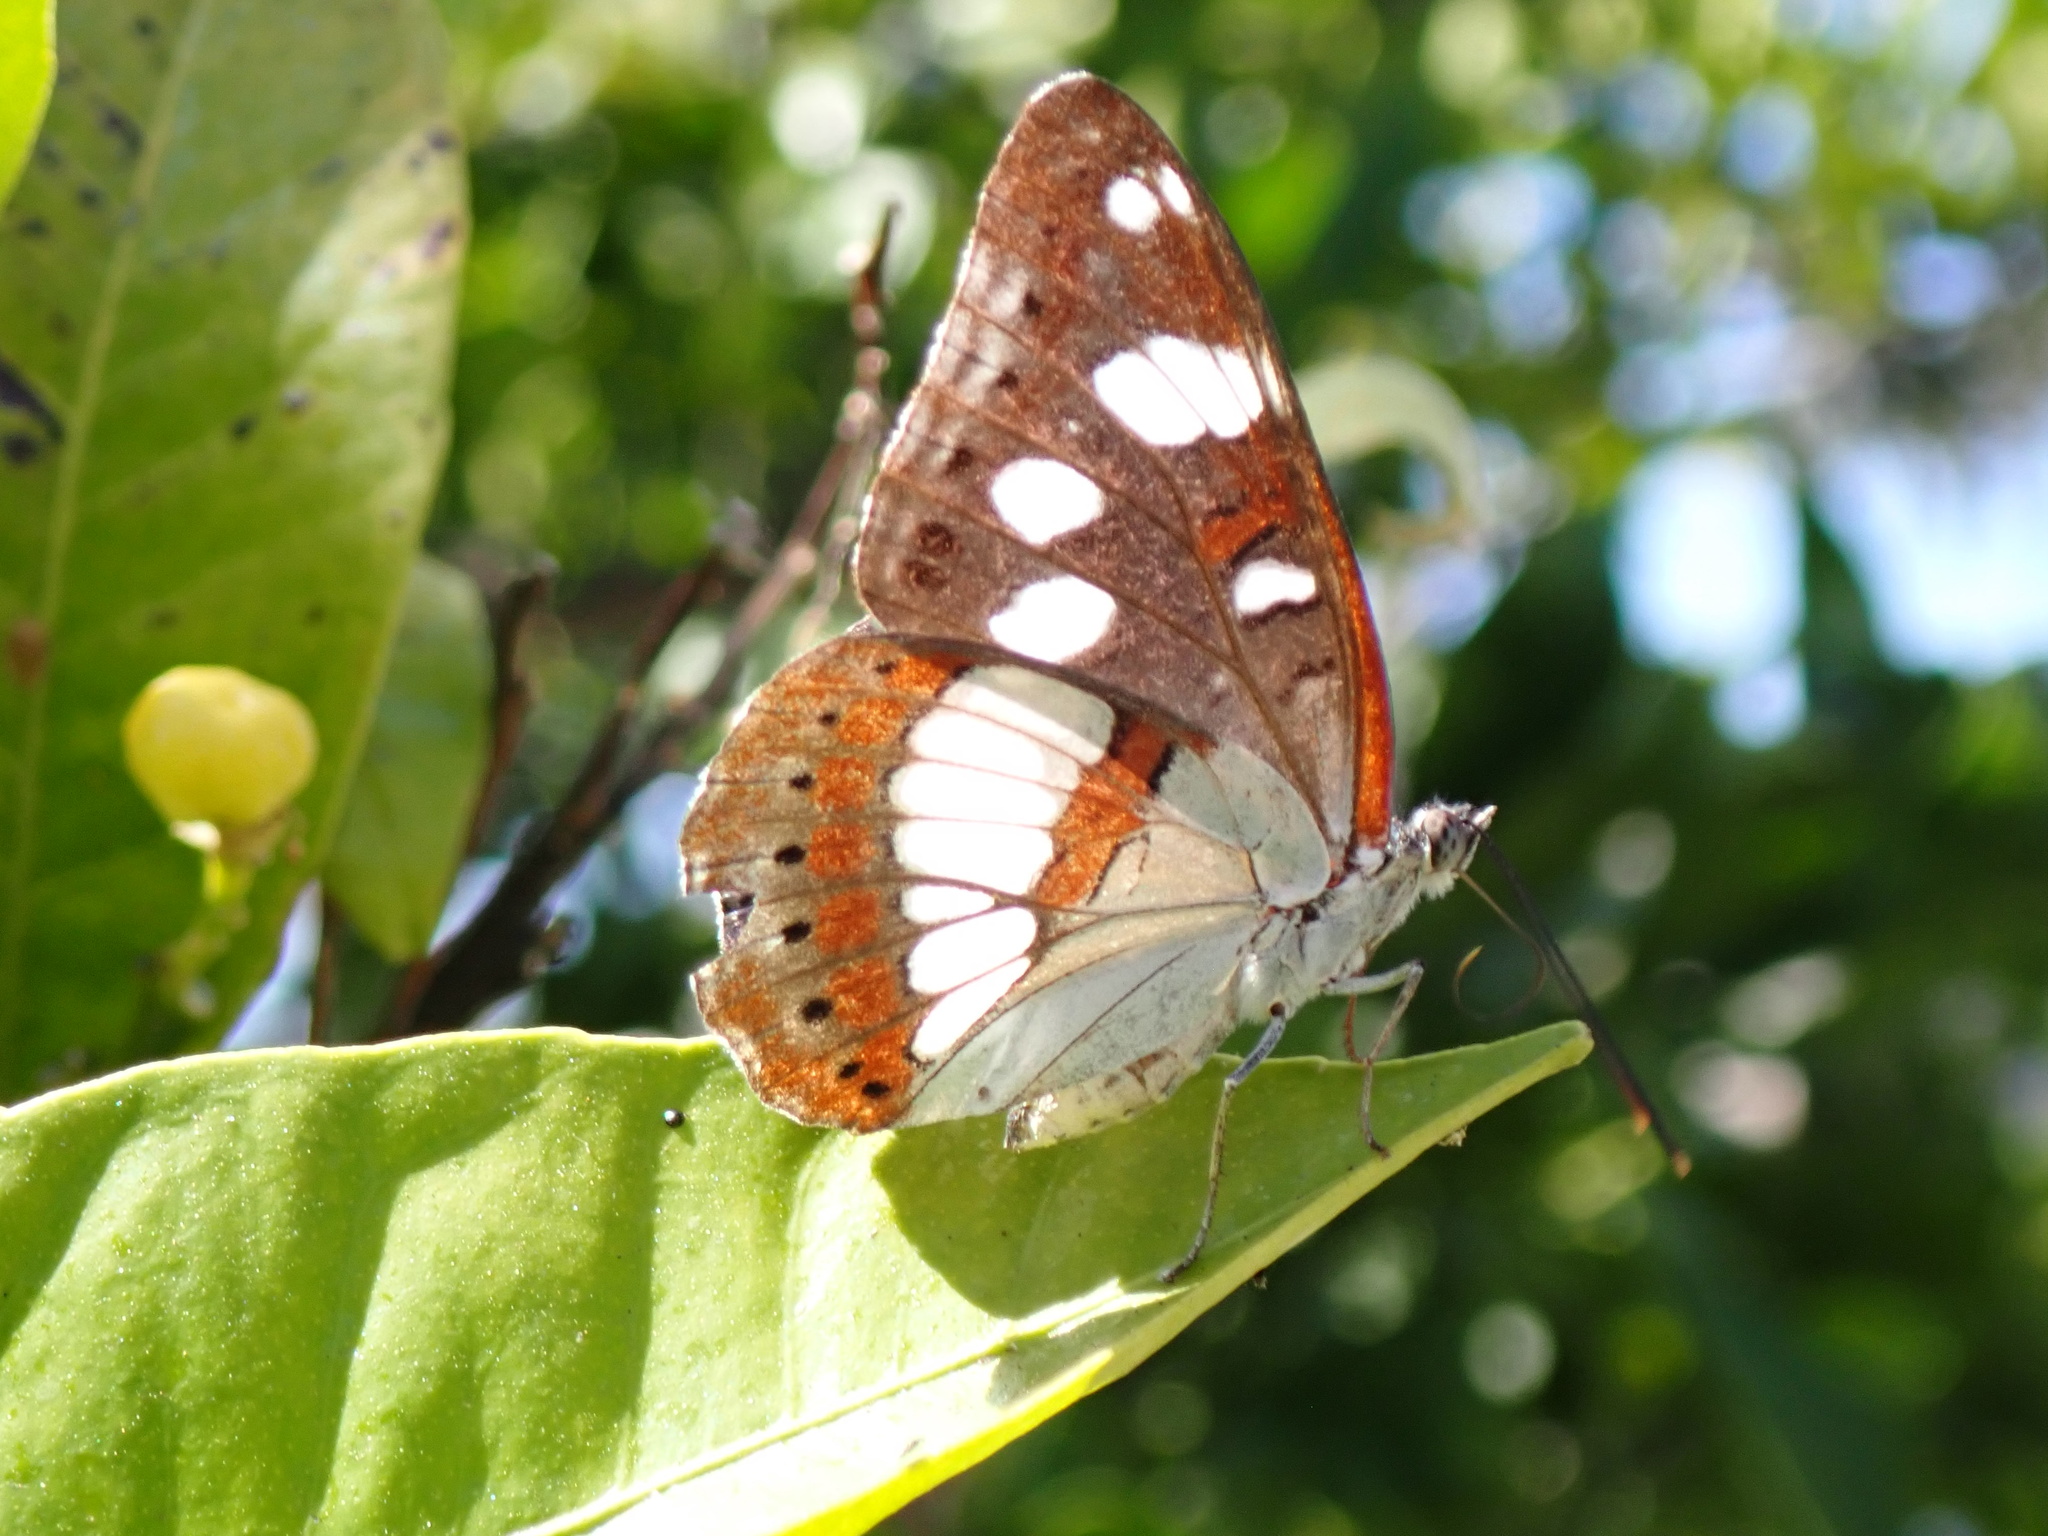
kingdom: Animalia
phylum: Arthropoda
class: Insecta
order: Lepidoptera
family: Nymphalidae
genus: Limenitis
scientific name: Limenitis reducta
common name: Southern white admiral
